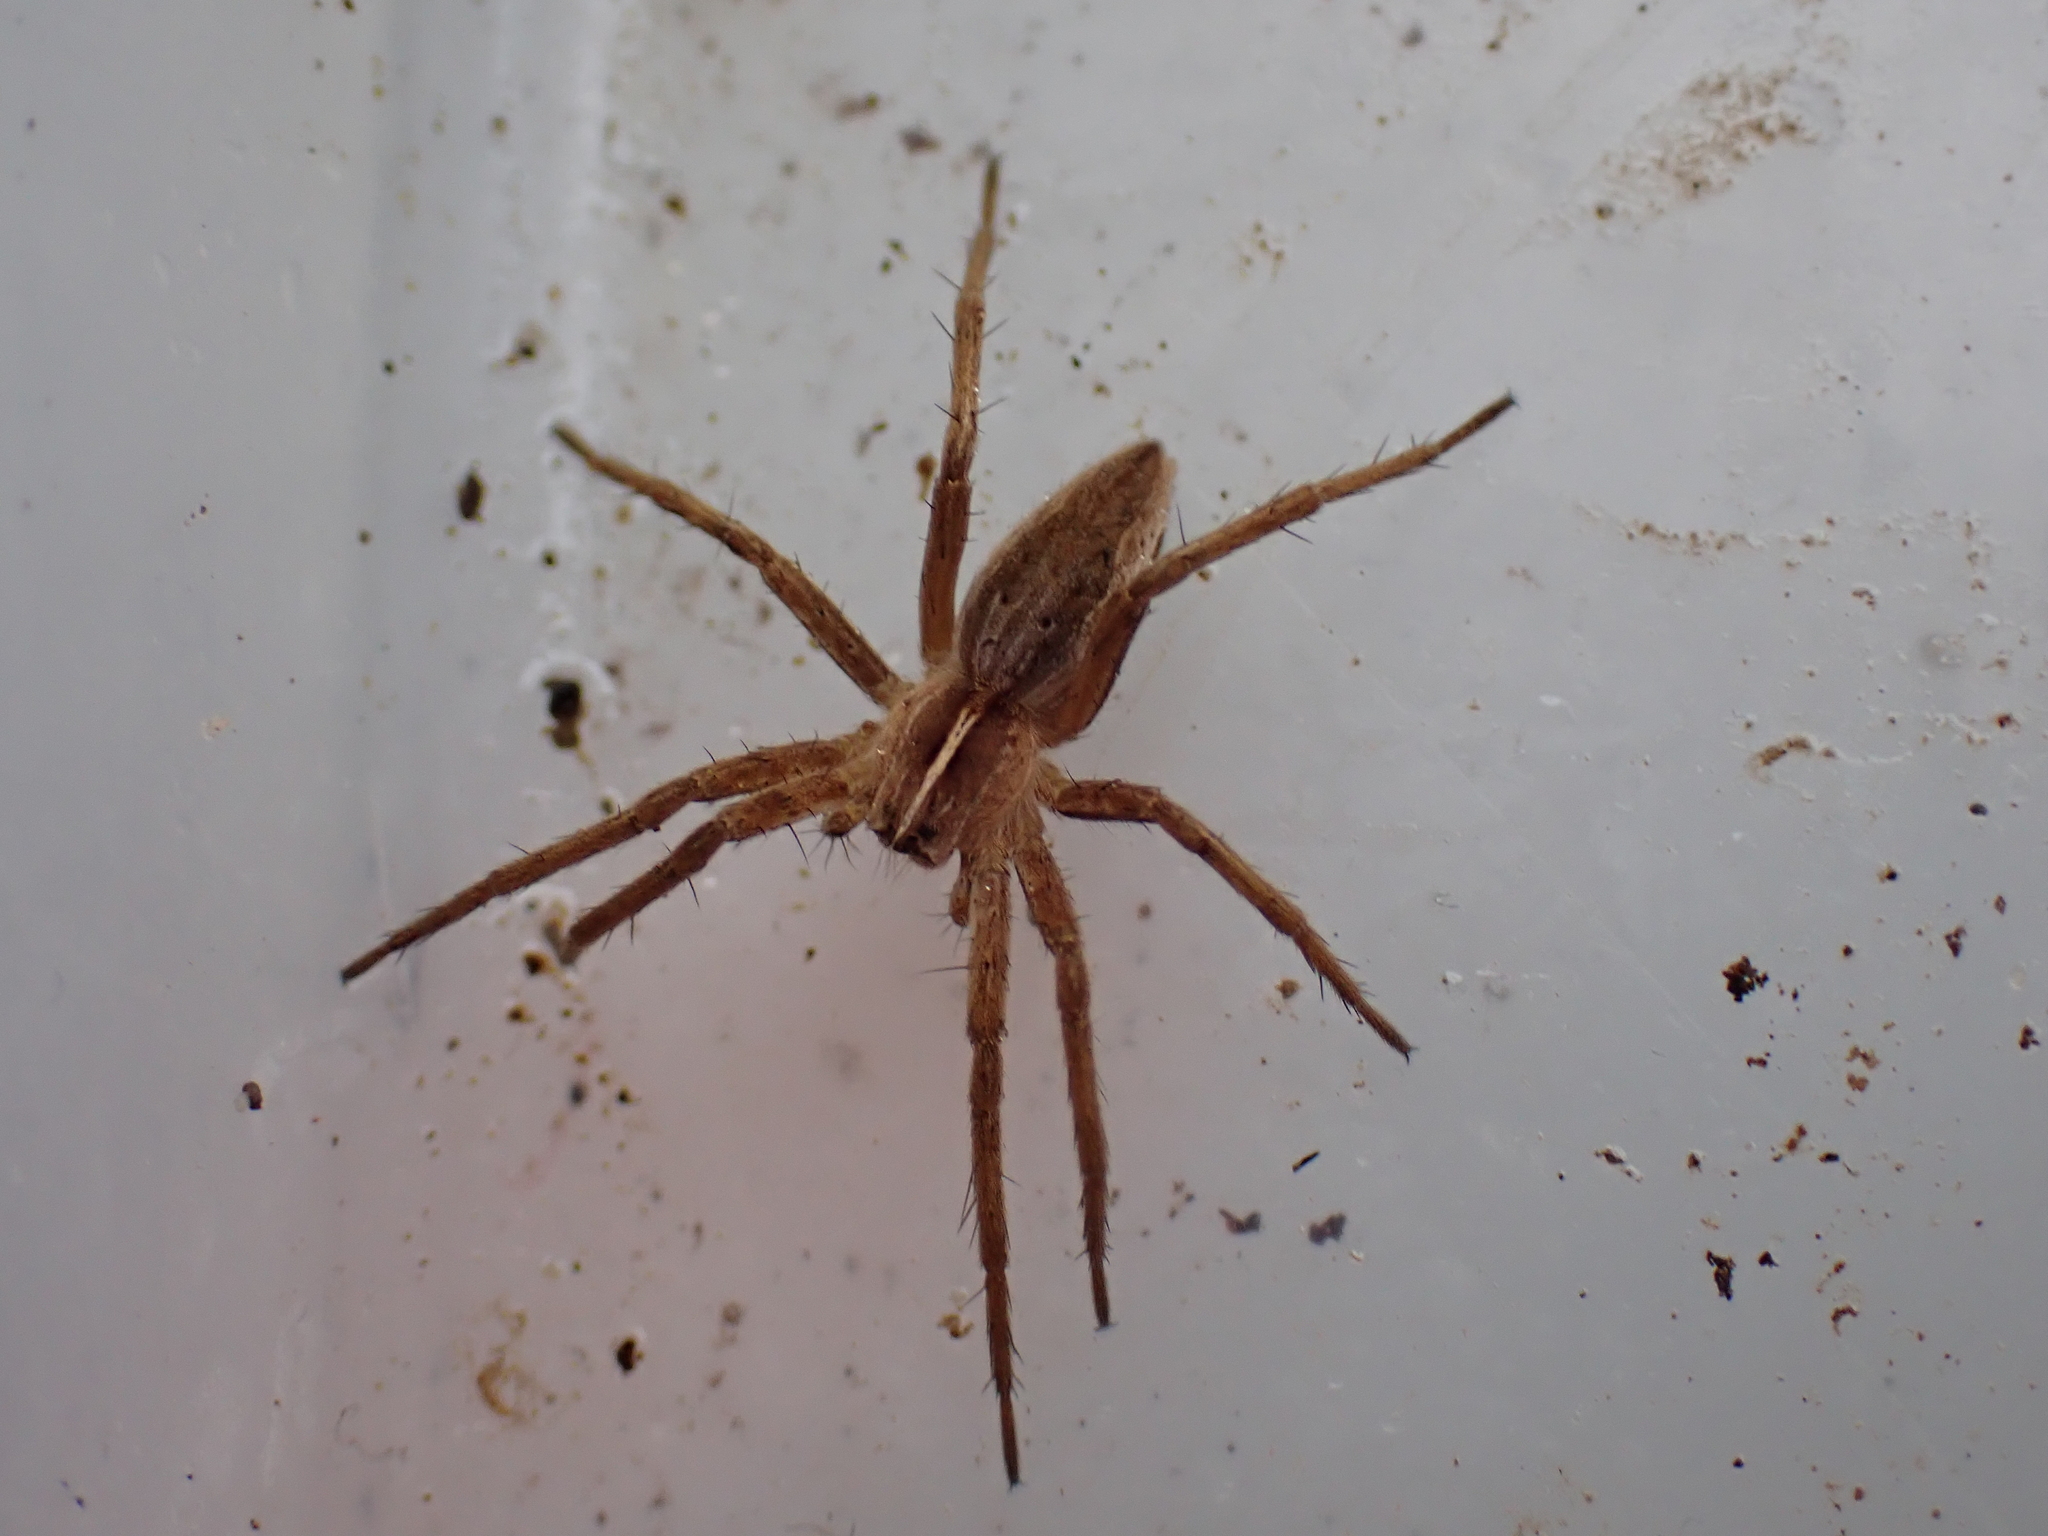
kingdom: Animalia
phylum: Arthropoda
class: Arachnida
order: Araneae
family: Pisauridae
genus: Pisaura
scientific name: Pisaura mirabilis
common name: Tent spider
